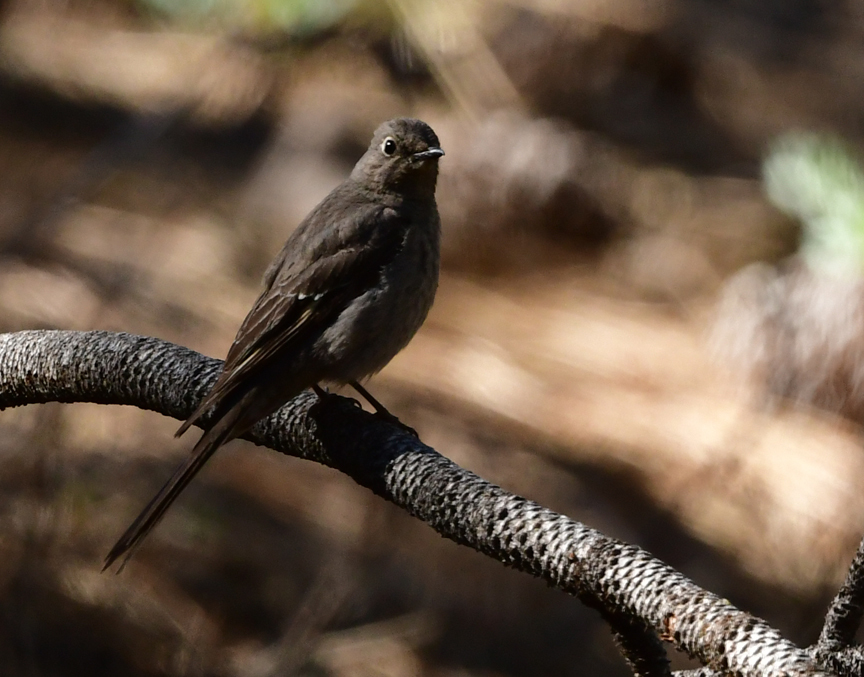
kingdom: Animalia
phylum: Chordata
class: Aves
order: Passeriformes
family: Turdidae
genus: Myadestes
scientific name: Myadestes townsendi
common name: Townsend's solitaire
